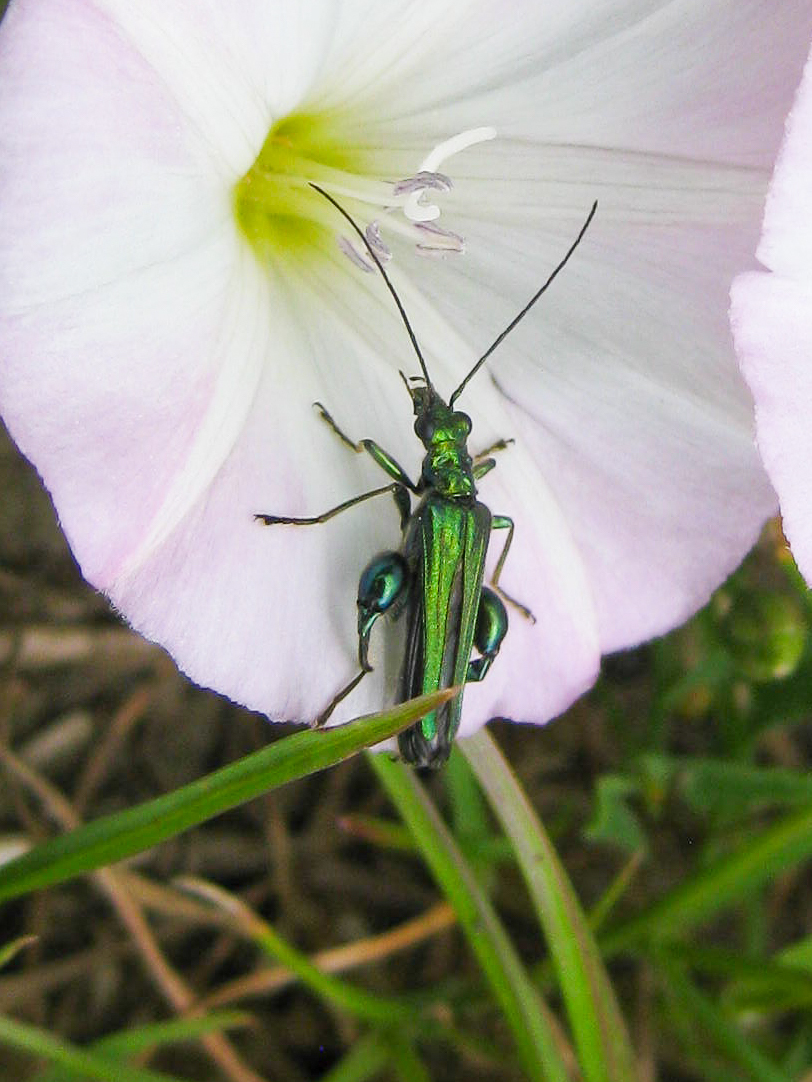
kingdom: Animalia
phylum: Arthropoda
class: Insecta
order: Coleoptera
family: Oedemeridae
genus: Oedemera
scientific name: Oedemera nobilis
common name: Swollen-thighed beetle
